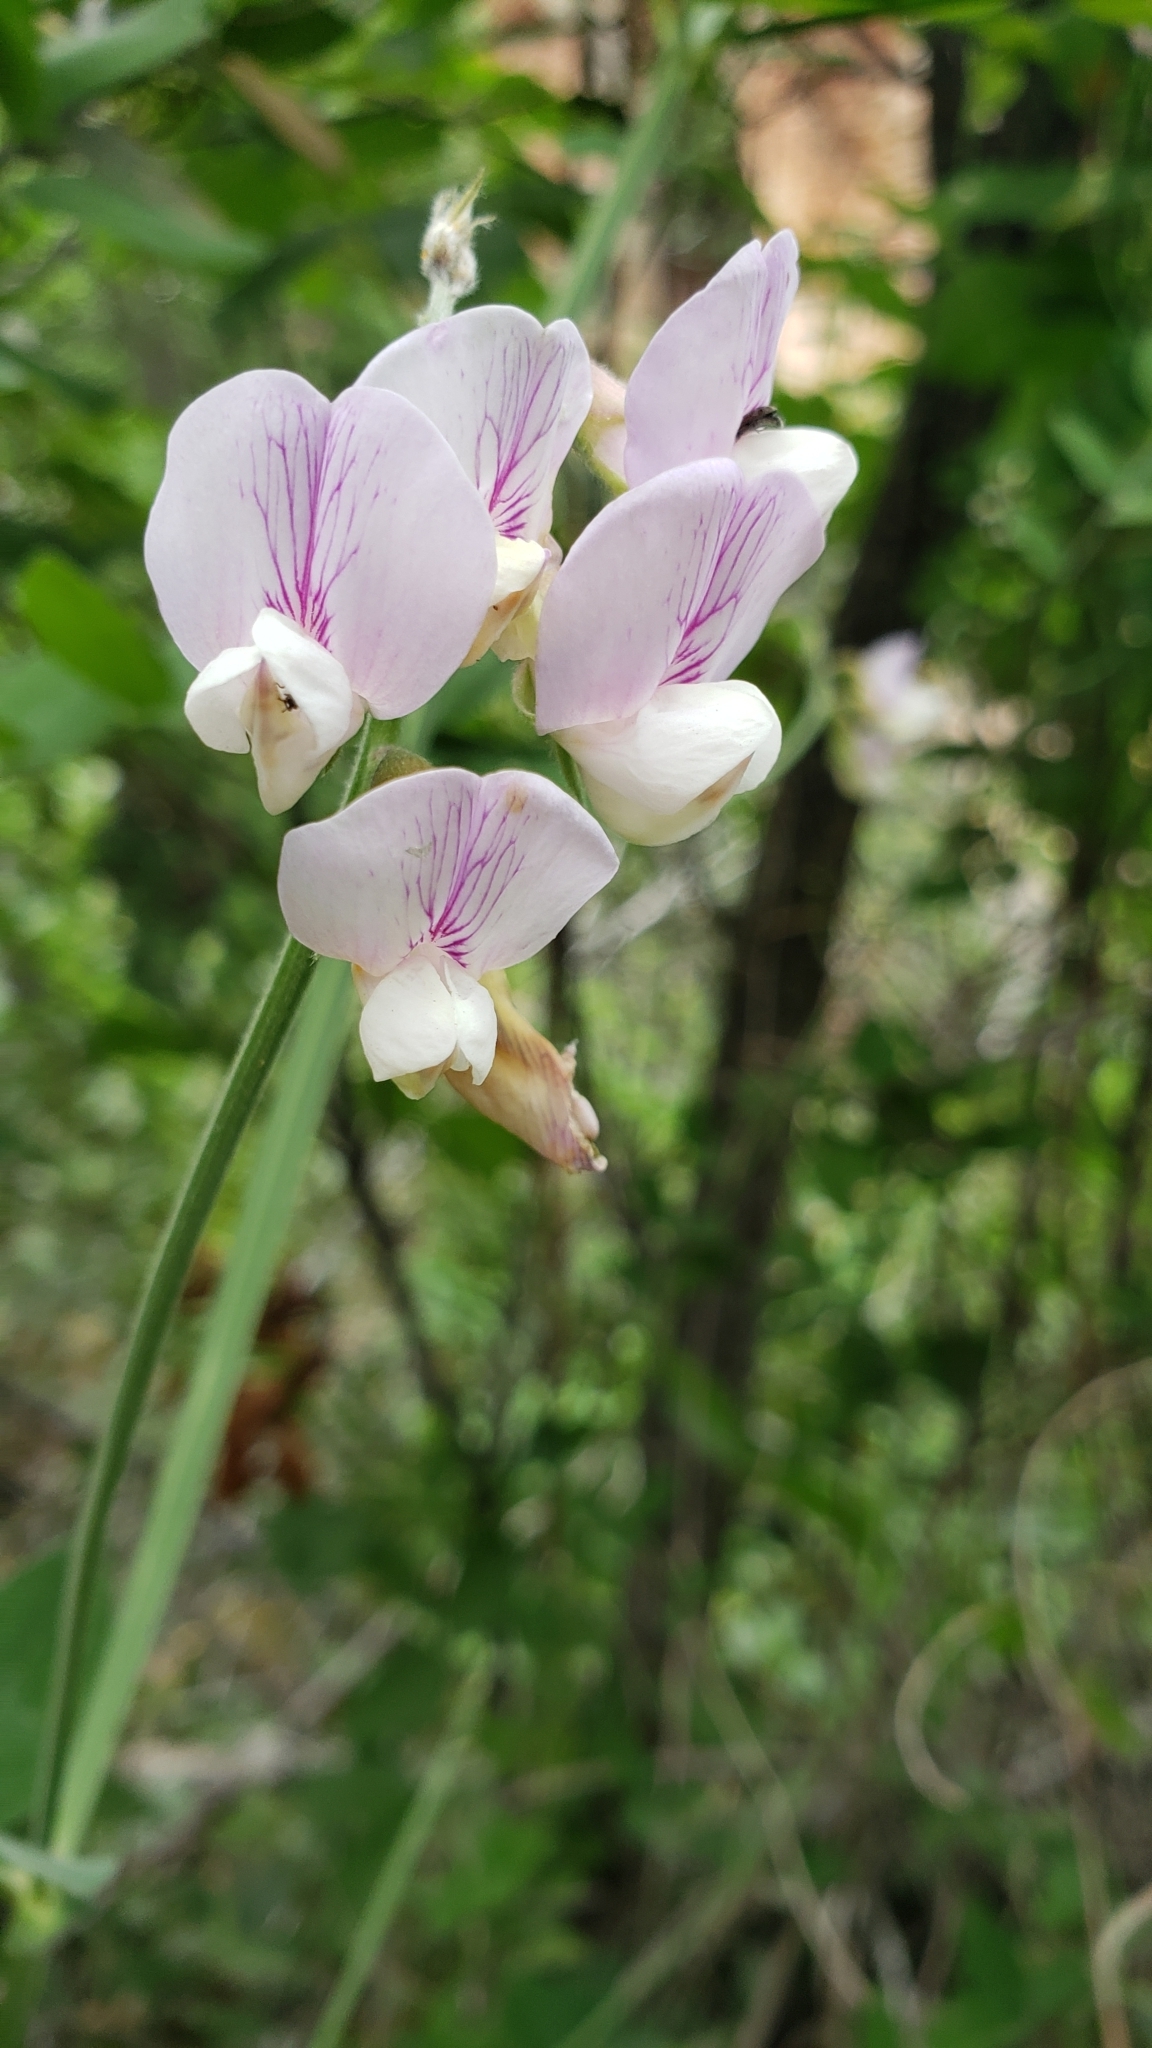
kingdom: Plantae
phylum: Tracheophyta
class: Magnoliopsida
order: Fabales
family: Fabaceae
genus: Lathyrus
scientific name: Lathyrus vestitus
